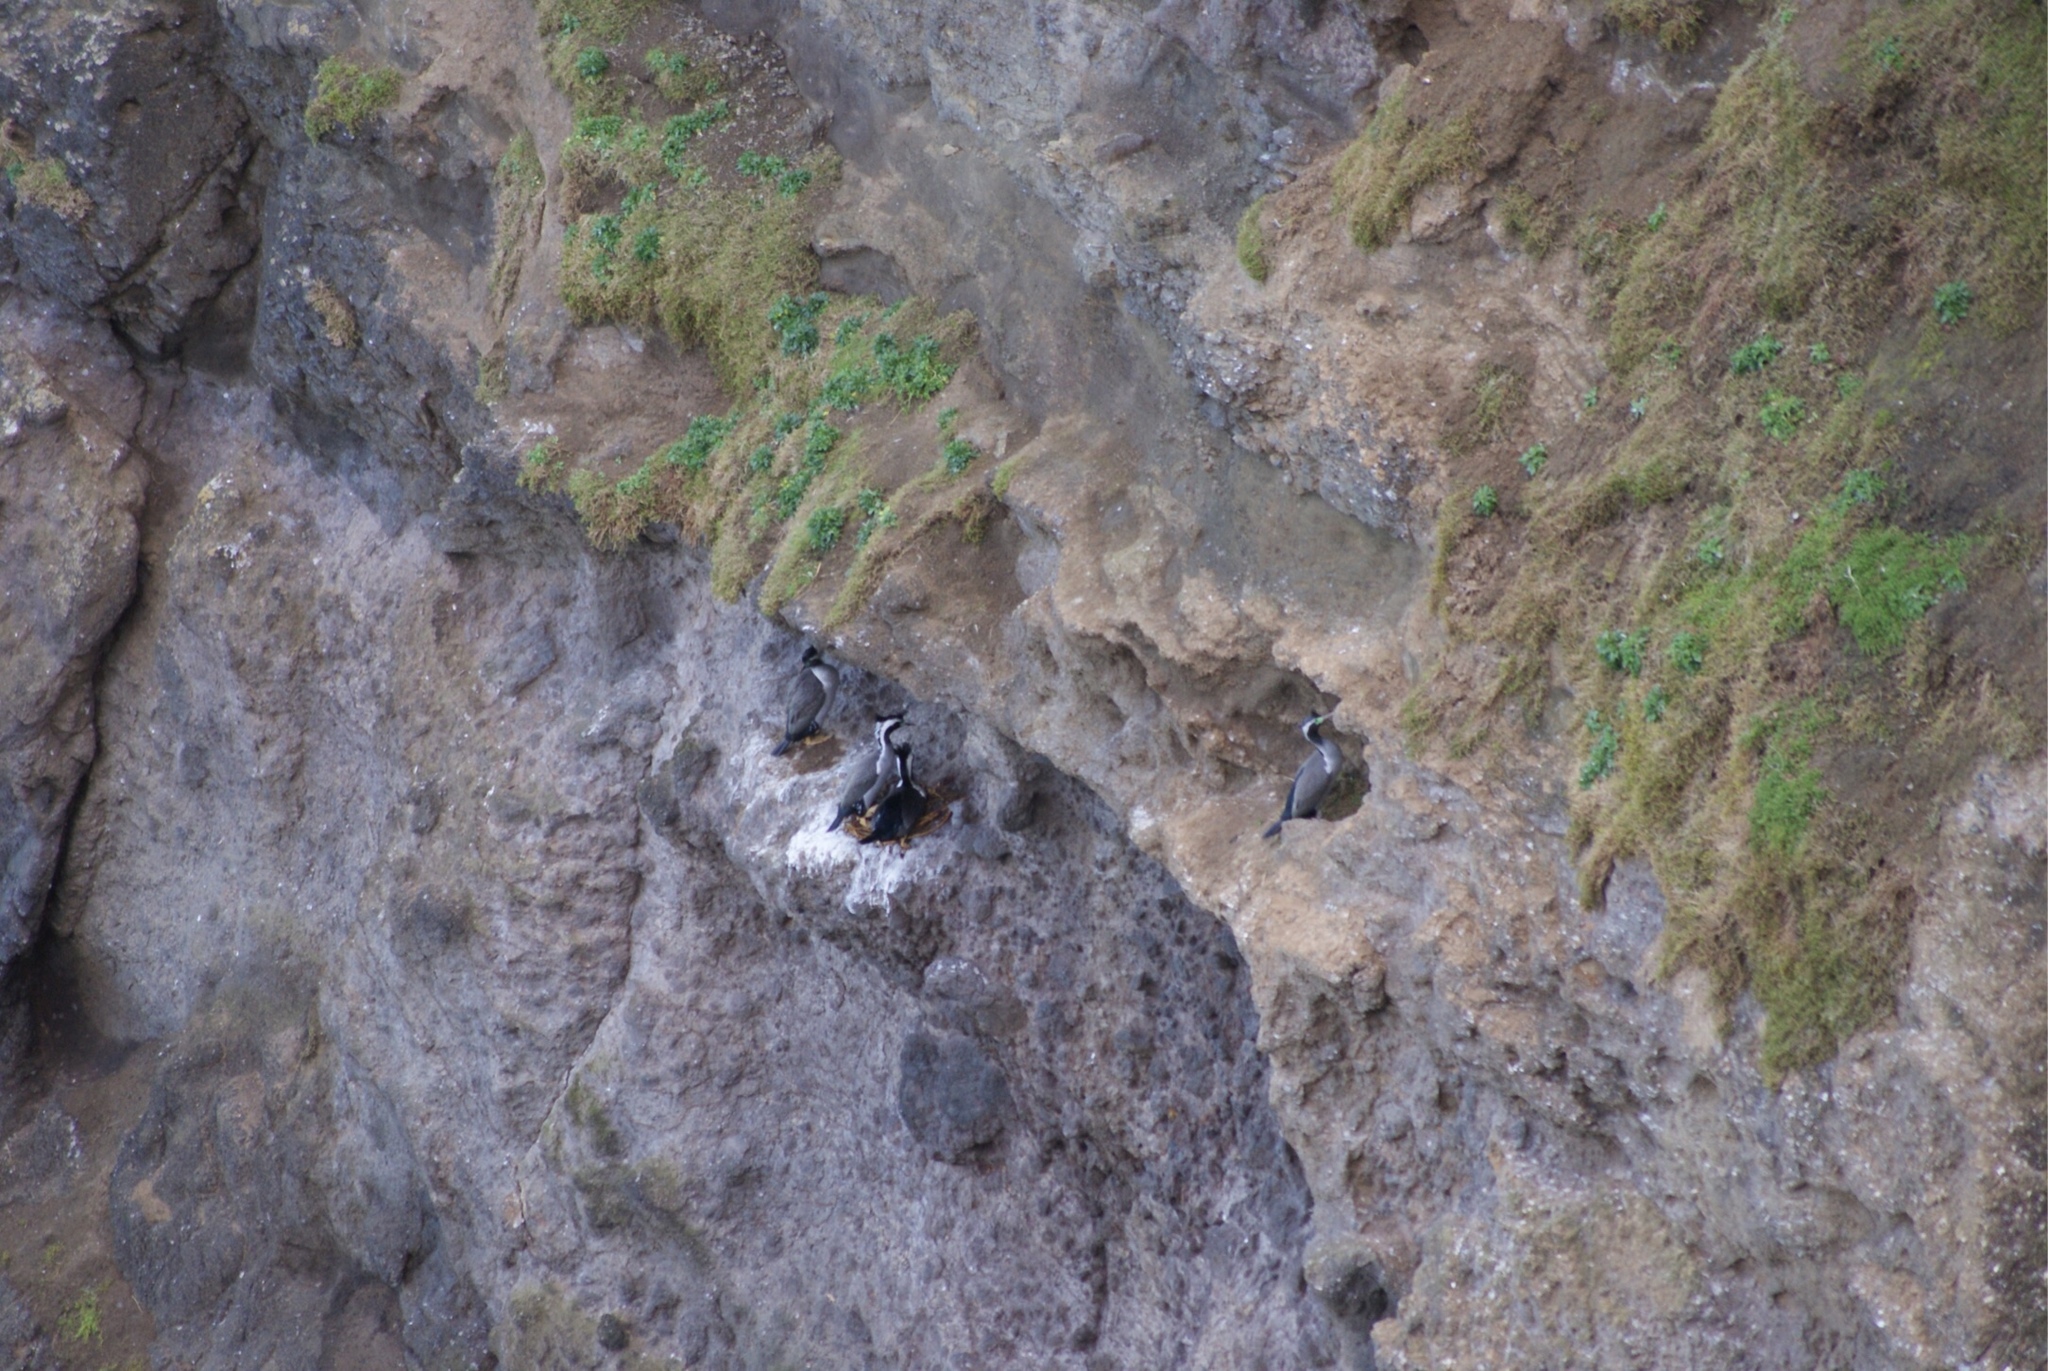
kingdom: Animalia
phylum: Chordata
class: Aves
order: Suliformes
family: Phalacrocoracidae
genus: Phalacrocorax
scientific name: Phalacrocorax punctatus
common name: Spotted shag
